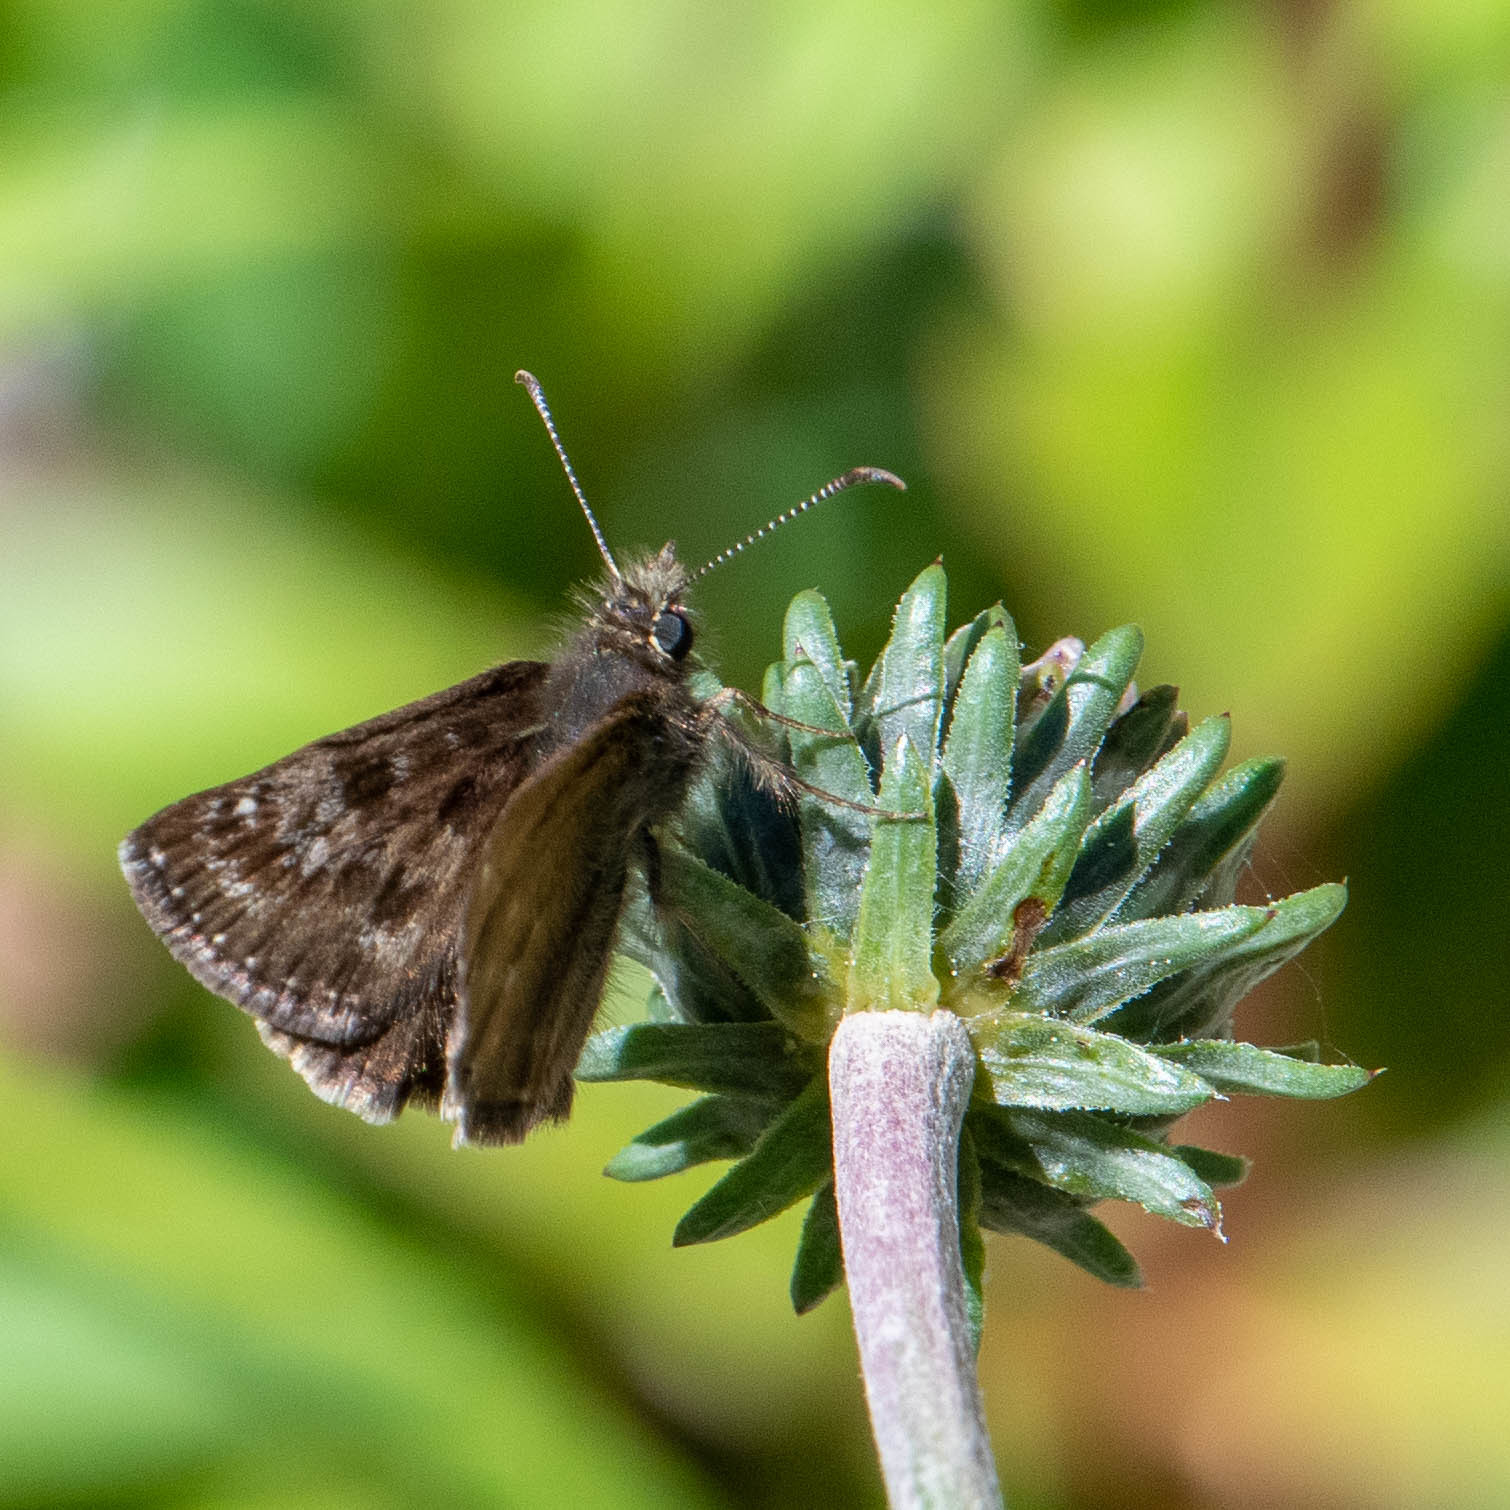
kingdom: Animalia
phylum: Arthropoda
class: Insecta
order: Lepidoptera
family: Hesperiidae
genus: Erynnis
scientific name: Erynnis tages
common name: Dingy skipper
